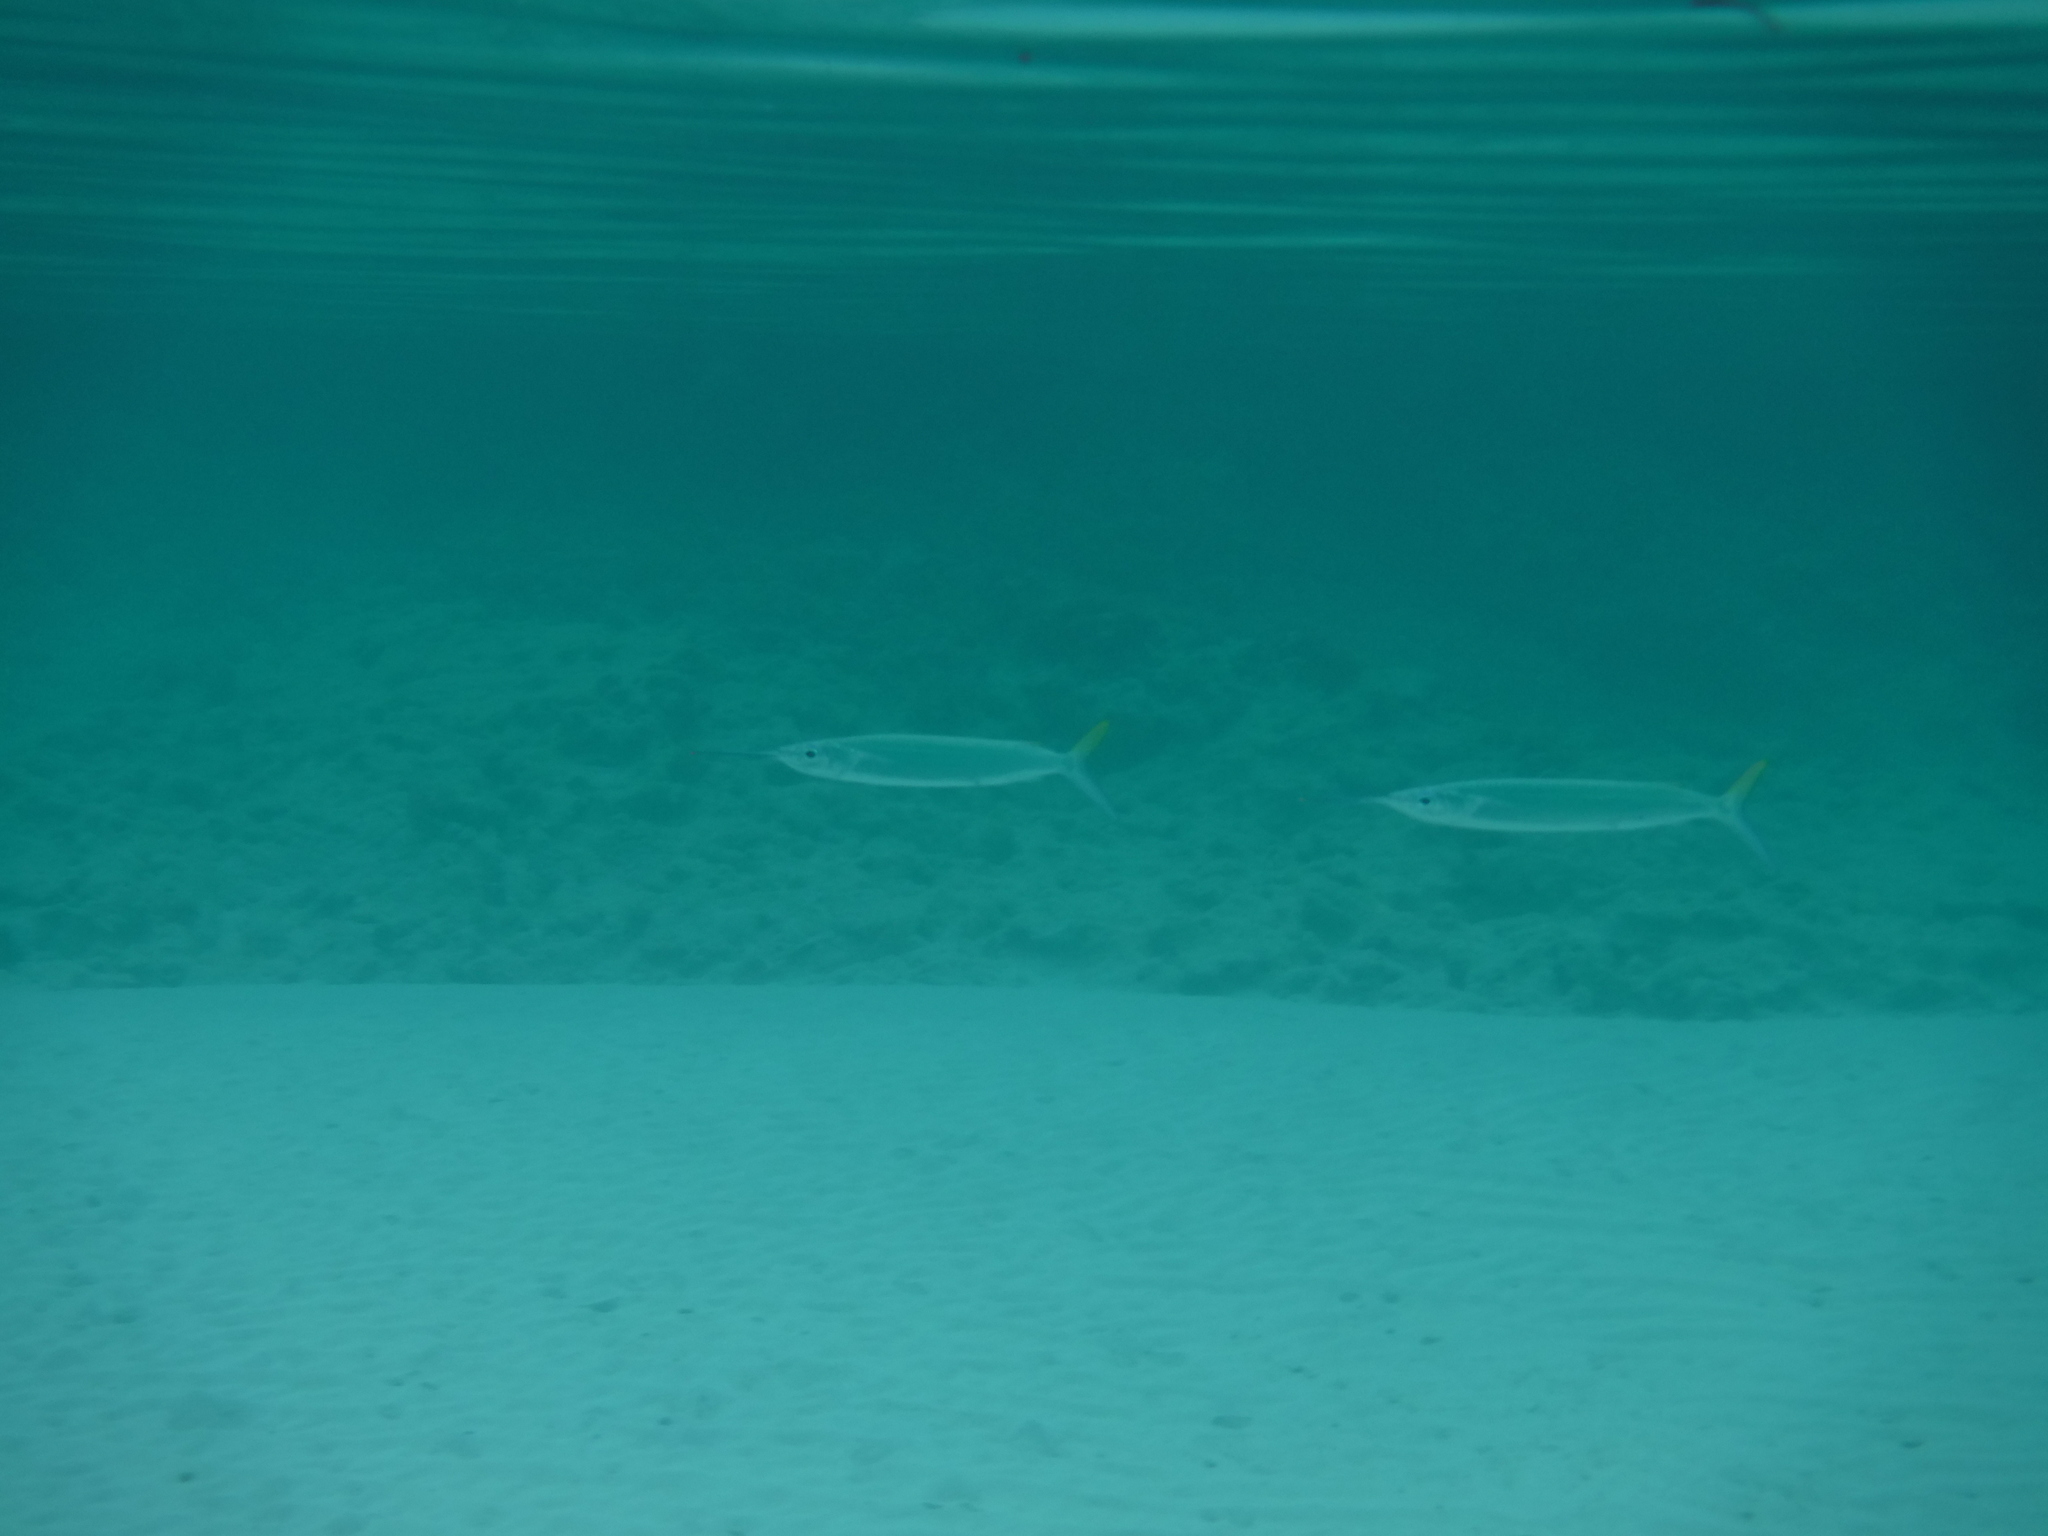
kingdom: Animalia
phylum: Chordata
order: Beloniformes
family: Hemiramphidae
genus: Hemiramphus
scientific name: Hemiramphus brasiliensis
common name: Ballyhoo
